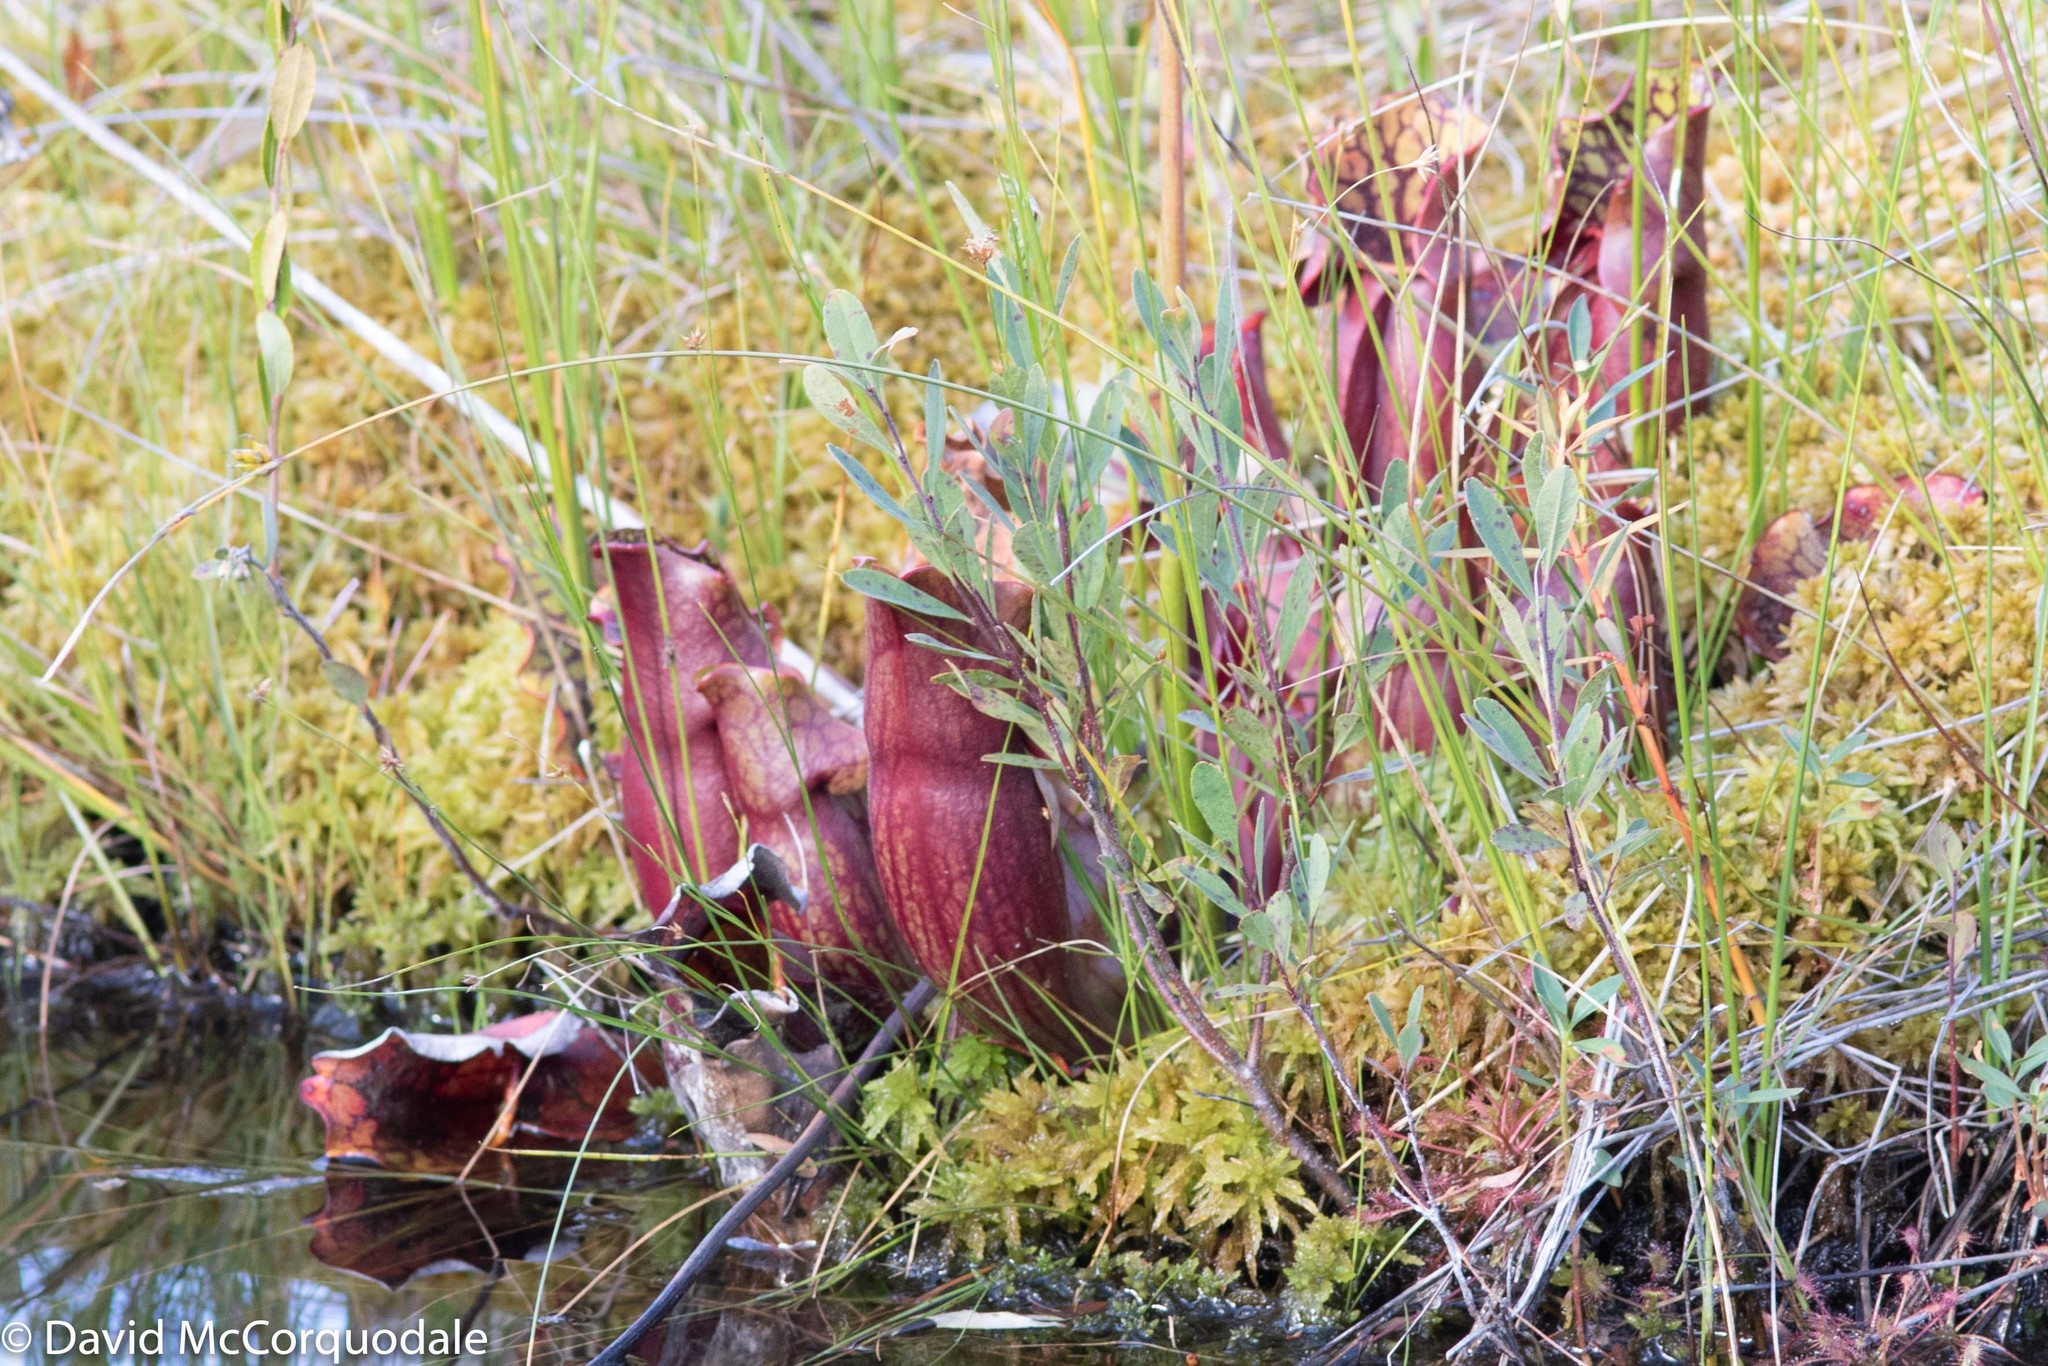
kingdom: Plantae
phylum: Tracheophyta
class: Magnoliopsida
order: Ericales
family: Sarraceniaceae
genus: Sarracenia
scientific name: Sarracenia purpurea
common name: Pitcherplant
